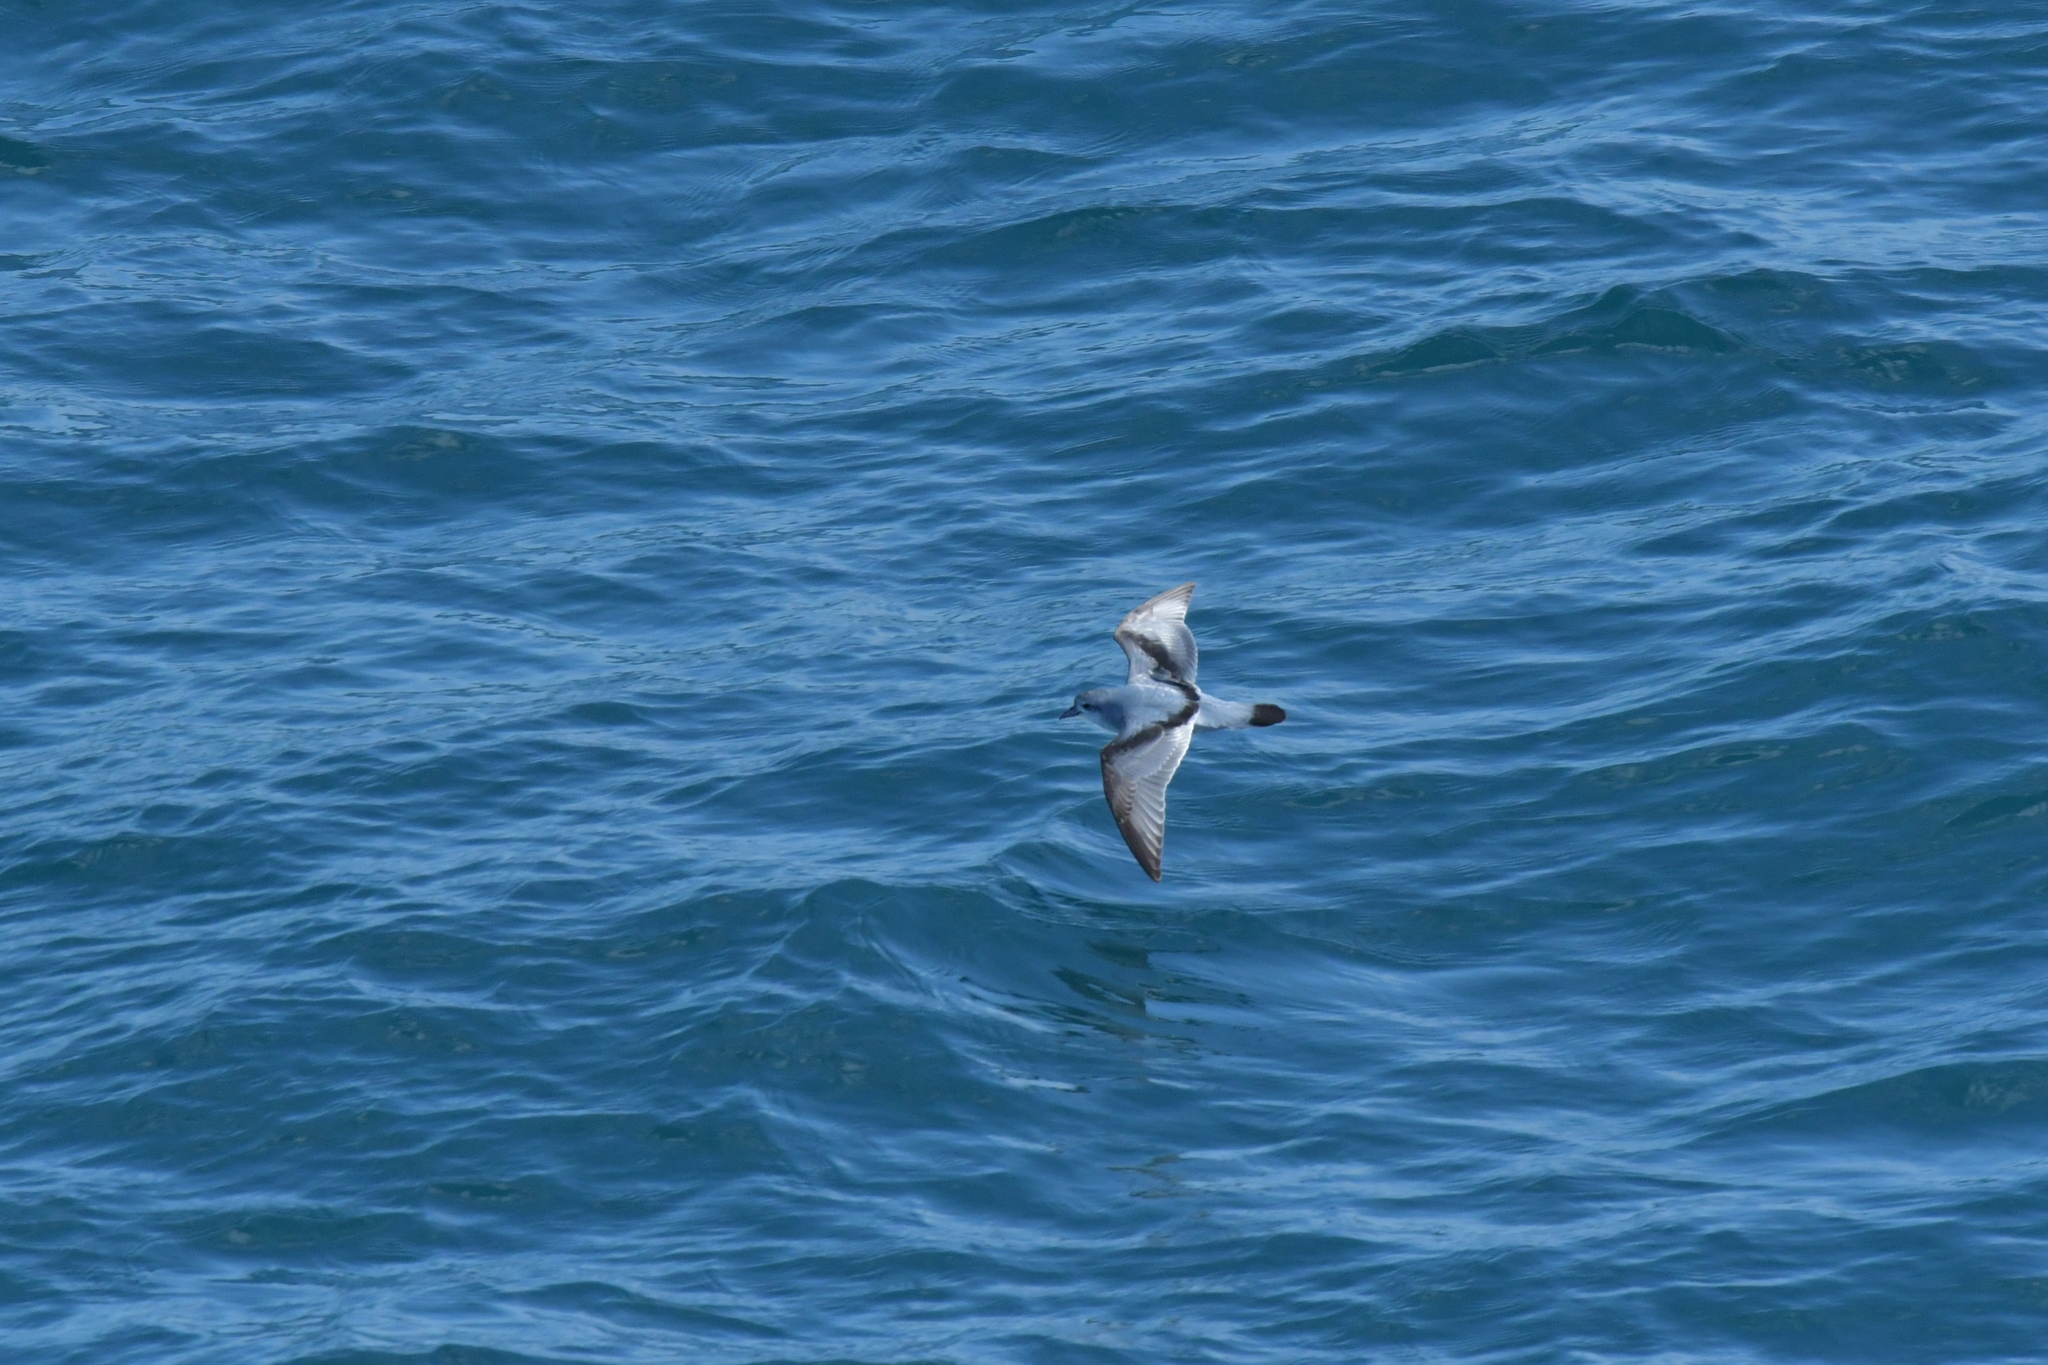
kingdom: Animalia
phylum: Chordata
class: Aves
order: Procellariiformes
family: Procellariidae
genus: Pachyptila
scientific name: Pachyptila turtur
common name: Fairy prion
